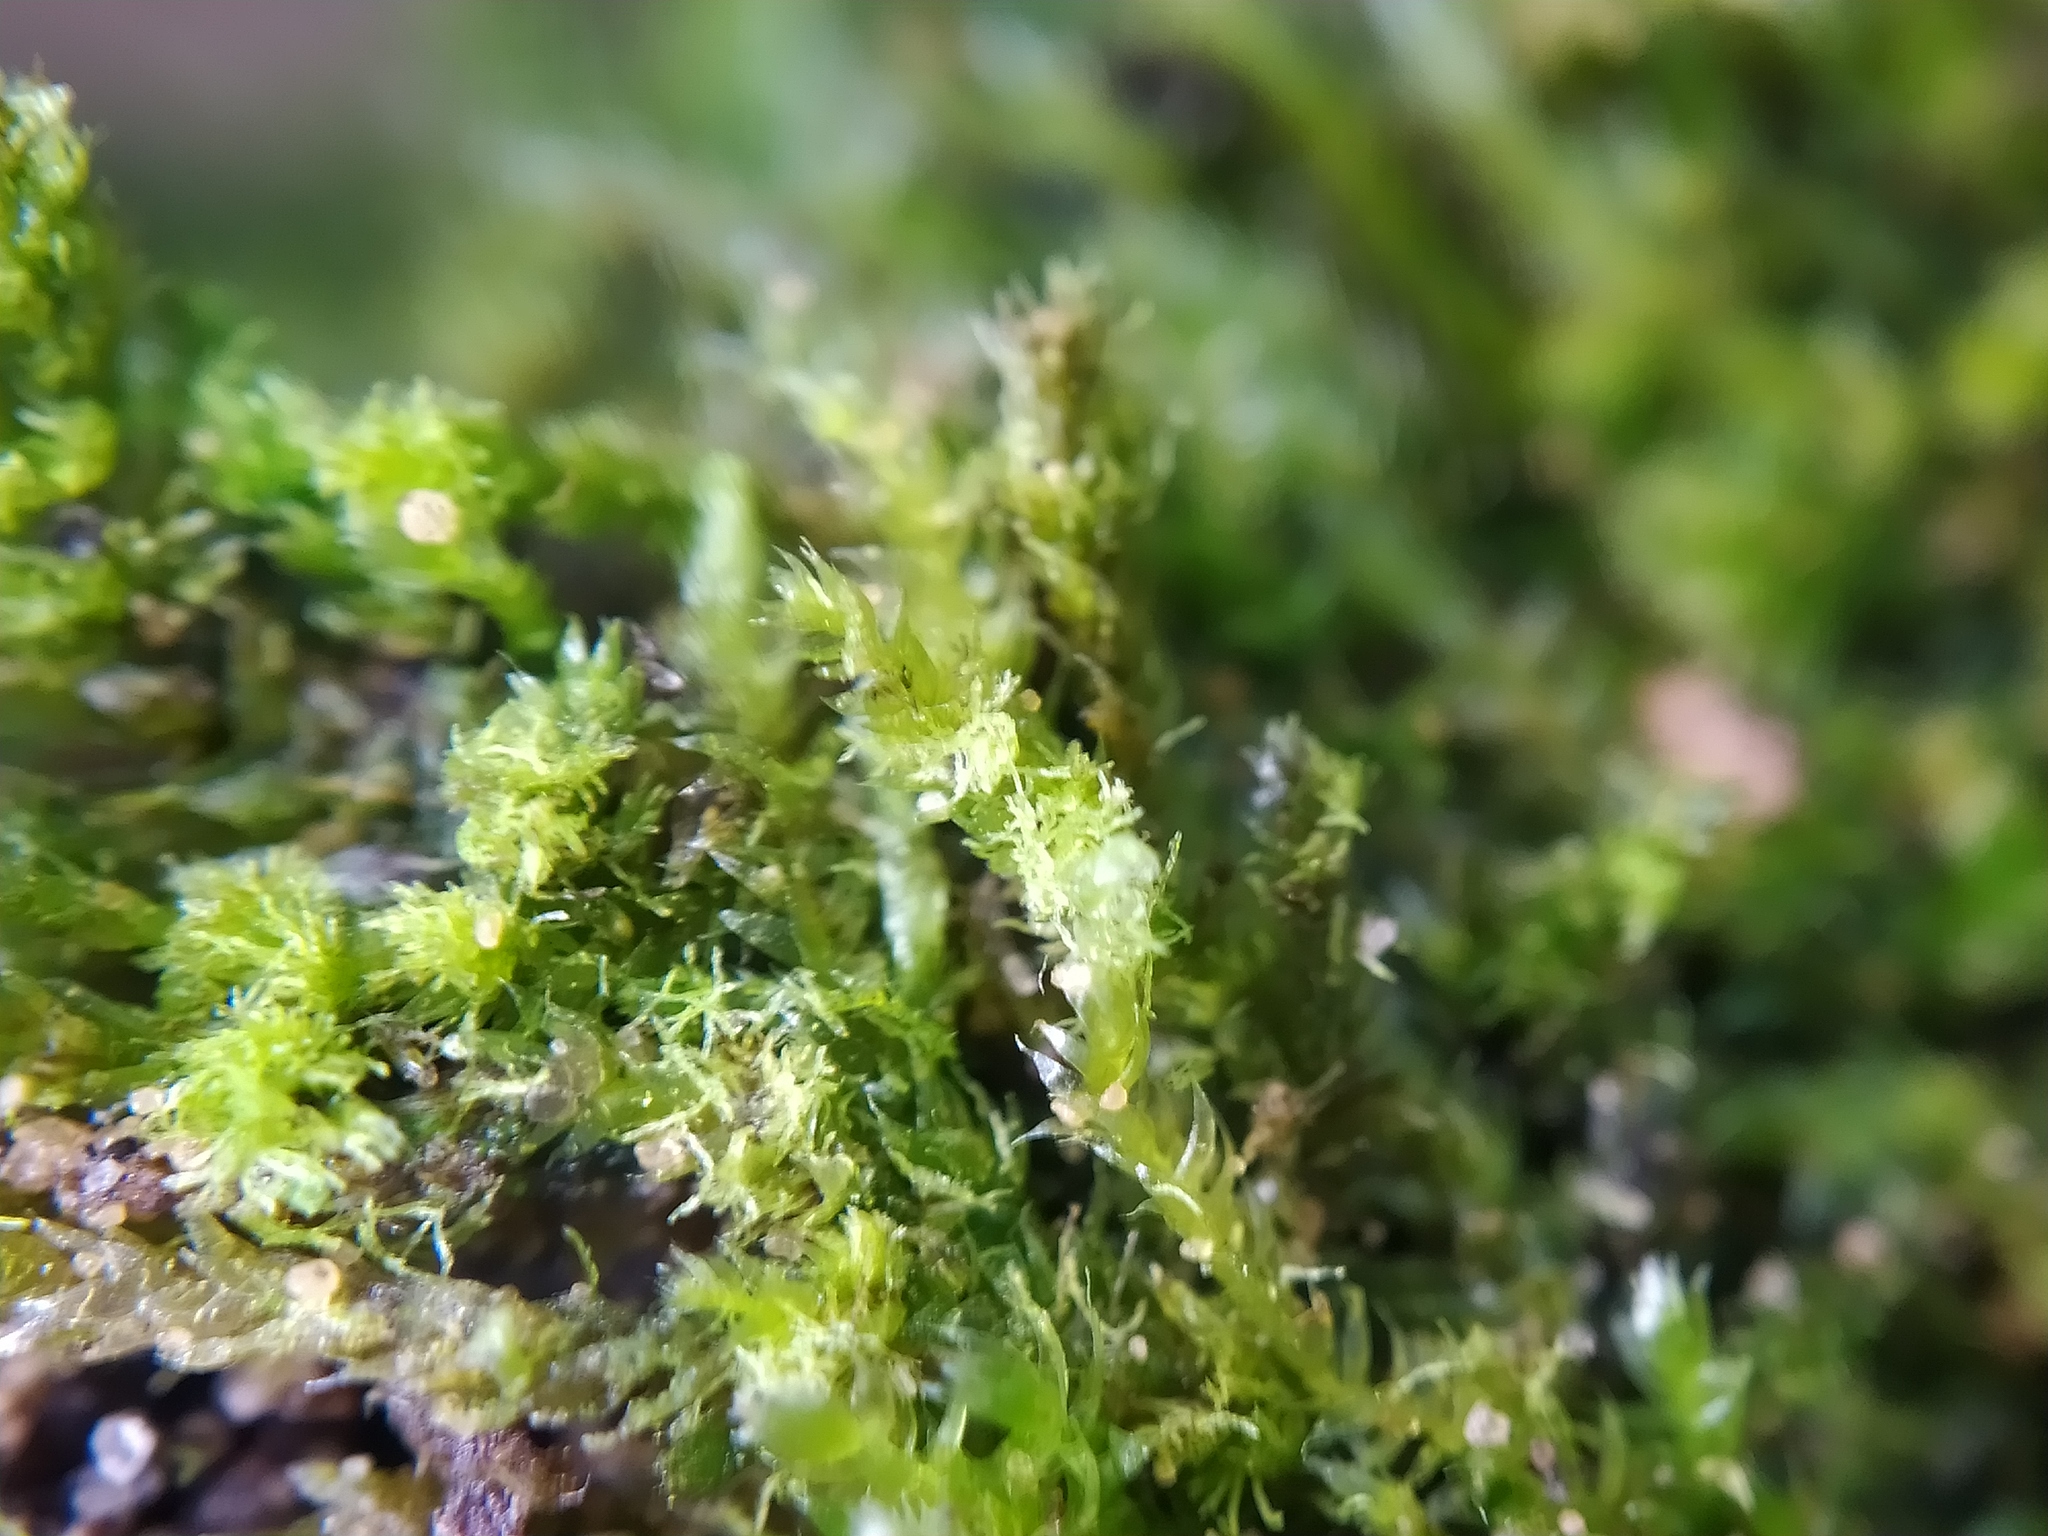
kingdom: Plantae
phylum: Bryophyta
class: Bryopsida
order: Hypnales
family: Plagiotheciaceae
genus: Pseudotaxiphyllum
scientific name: Pseudotaxiphyllum elegans
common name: Elegant silk moss
